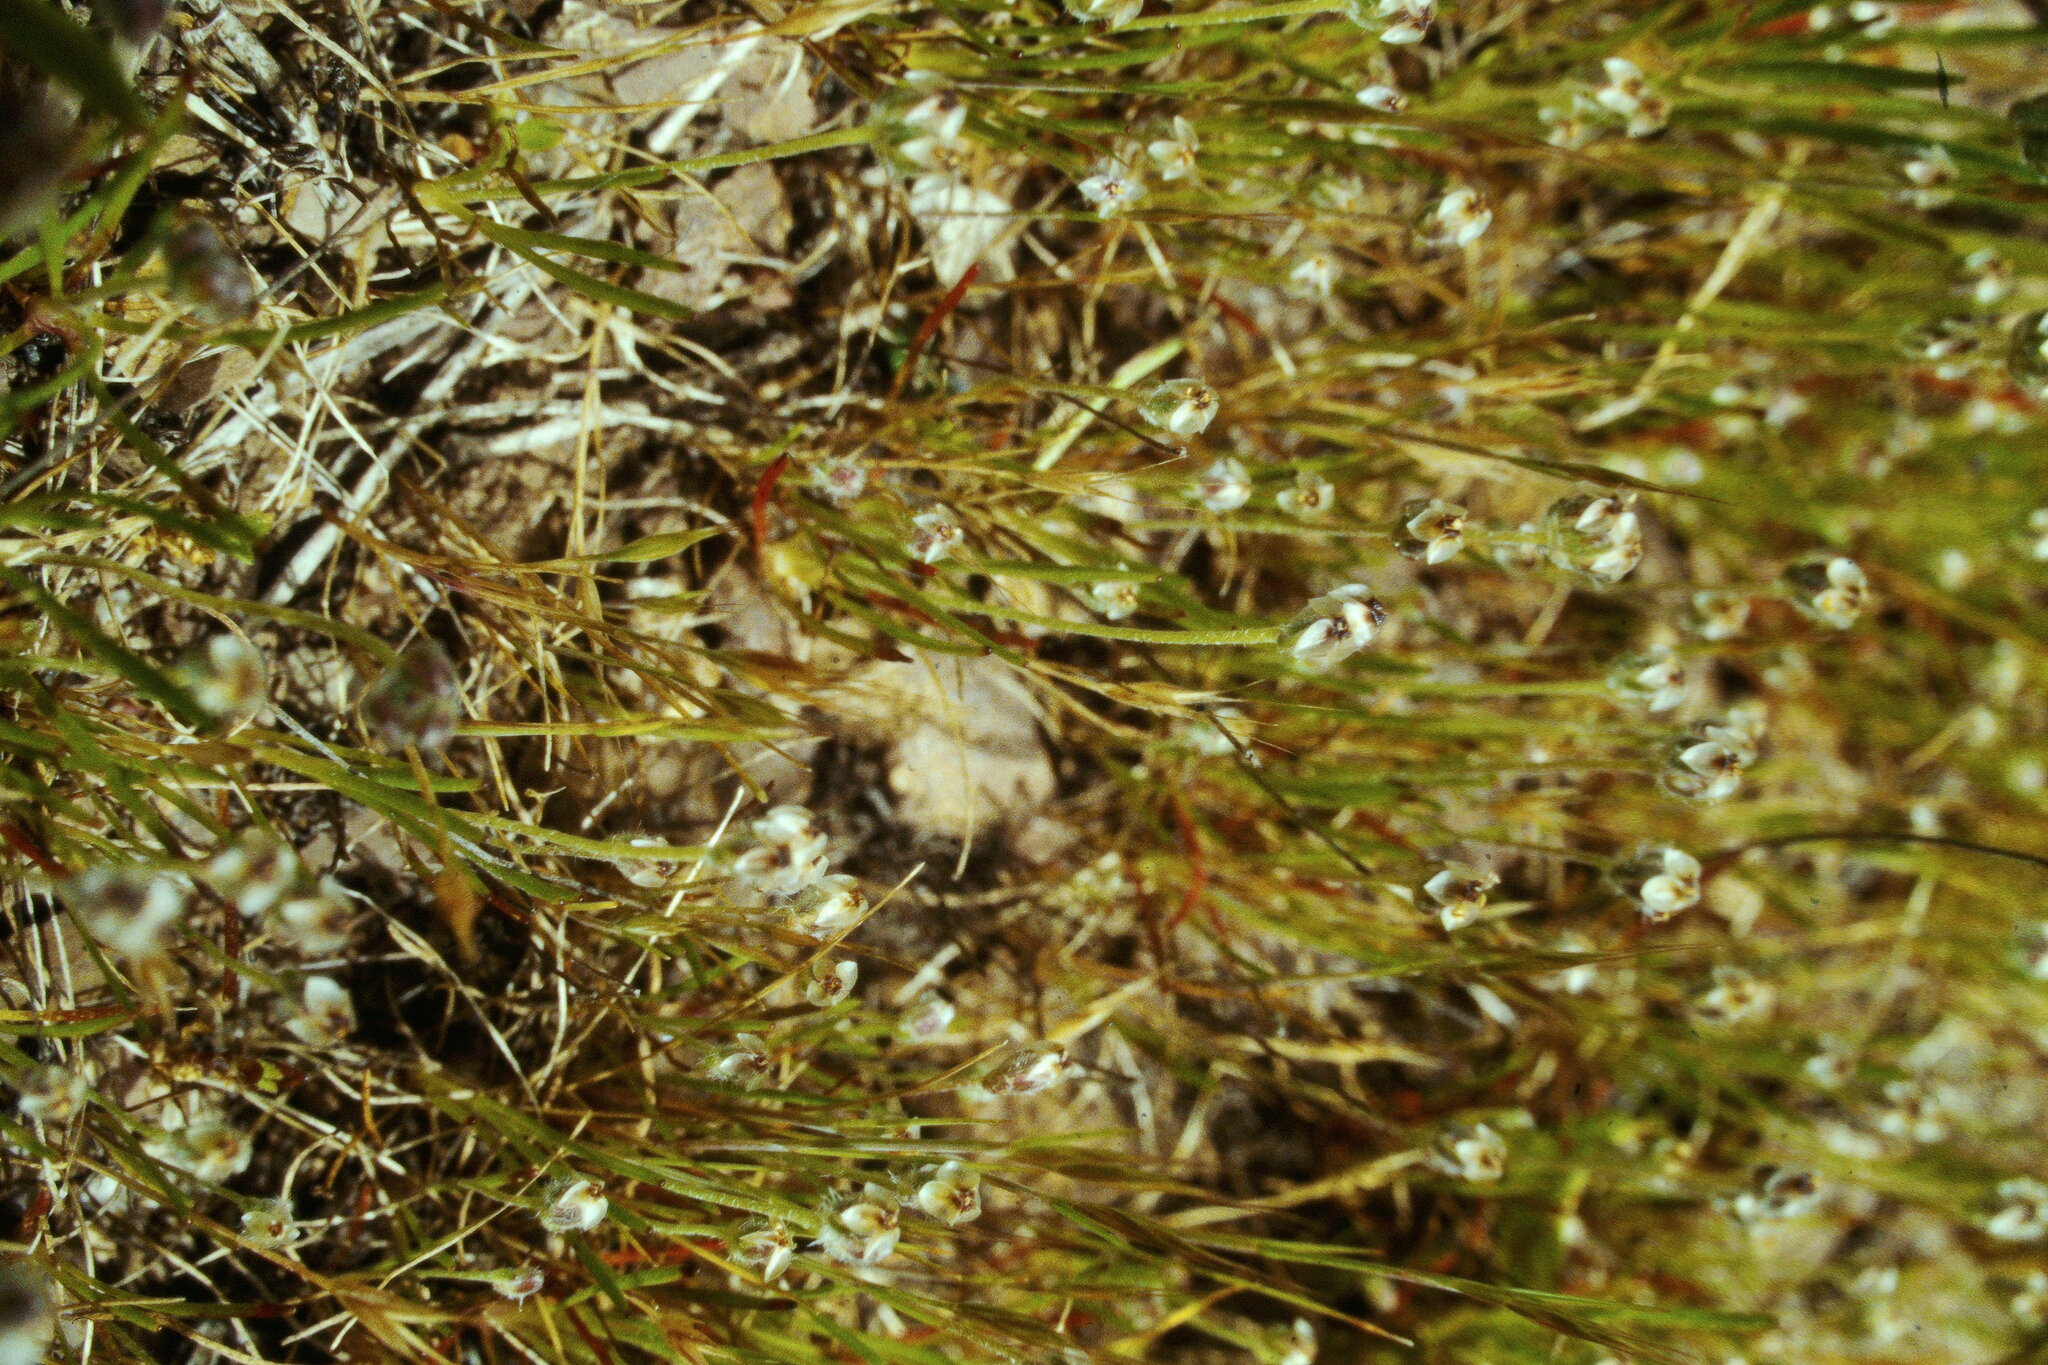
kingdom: Plantae
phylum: Tracheophyta
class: Magnoliopsida
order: Lamiales
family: Plantaginaceae
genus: Plantago
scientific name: Plantago erecta
